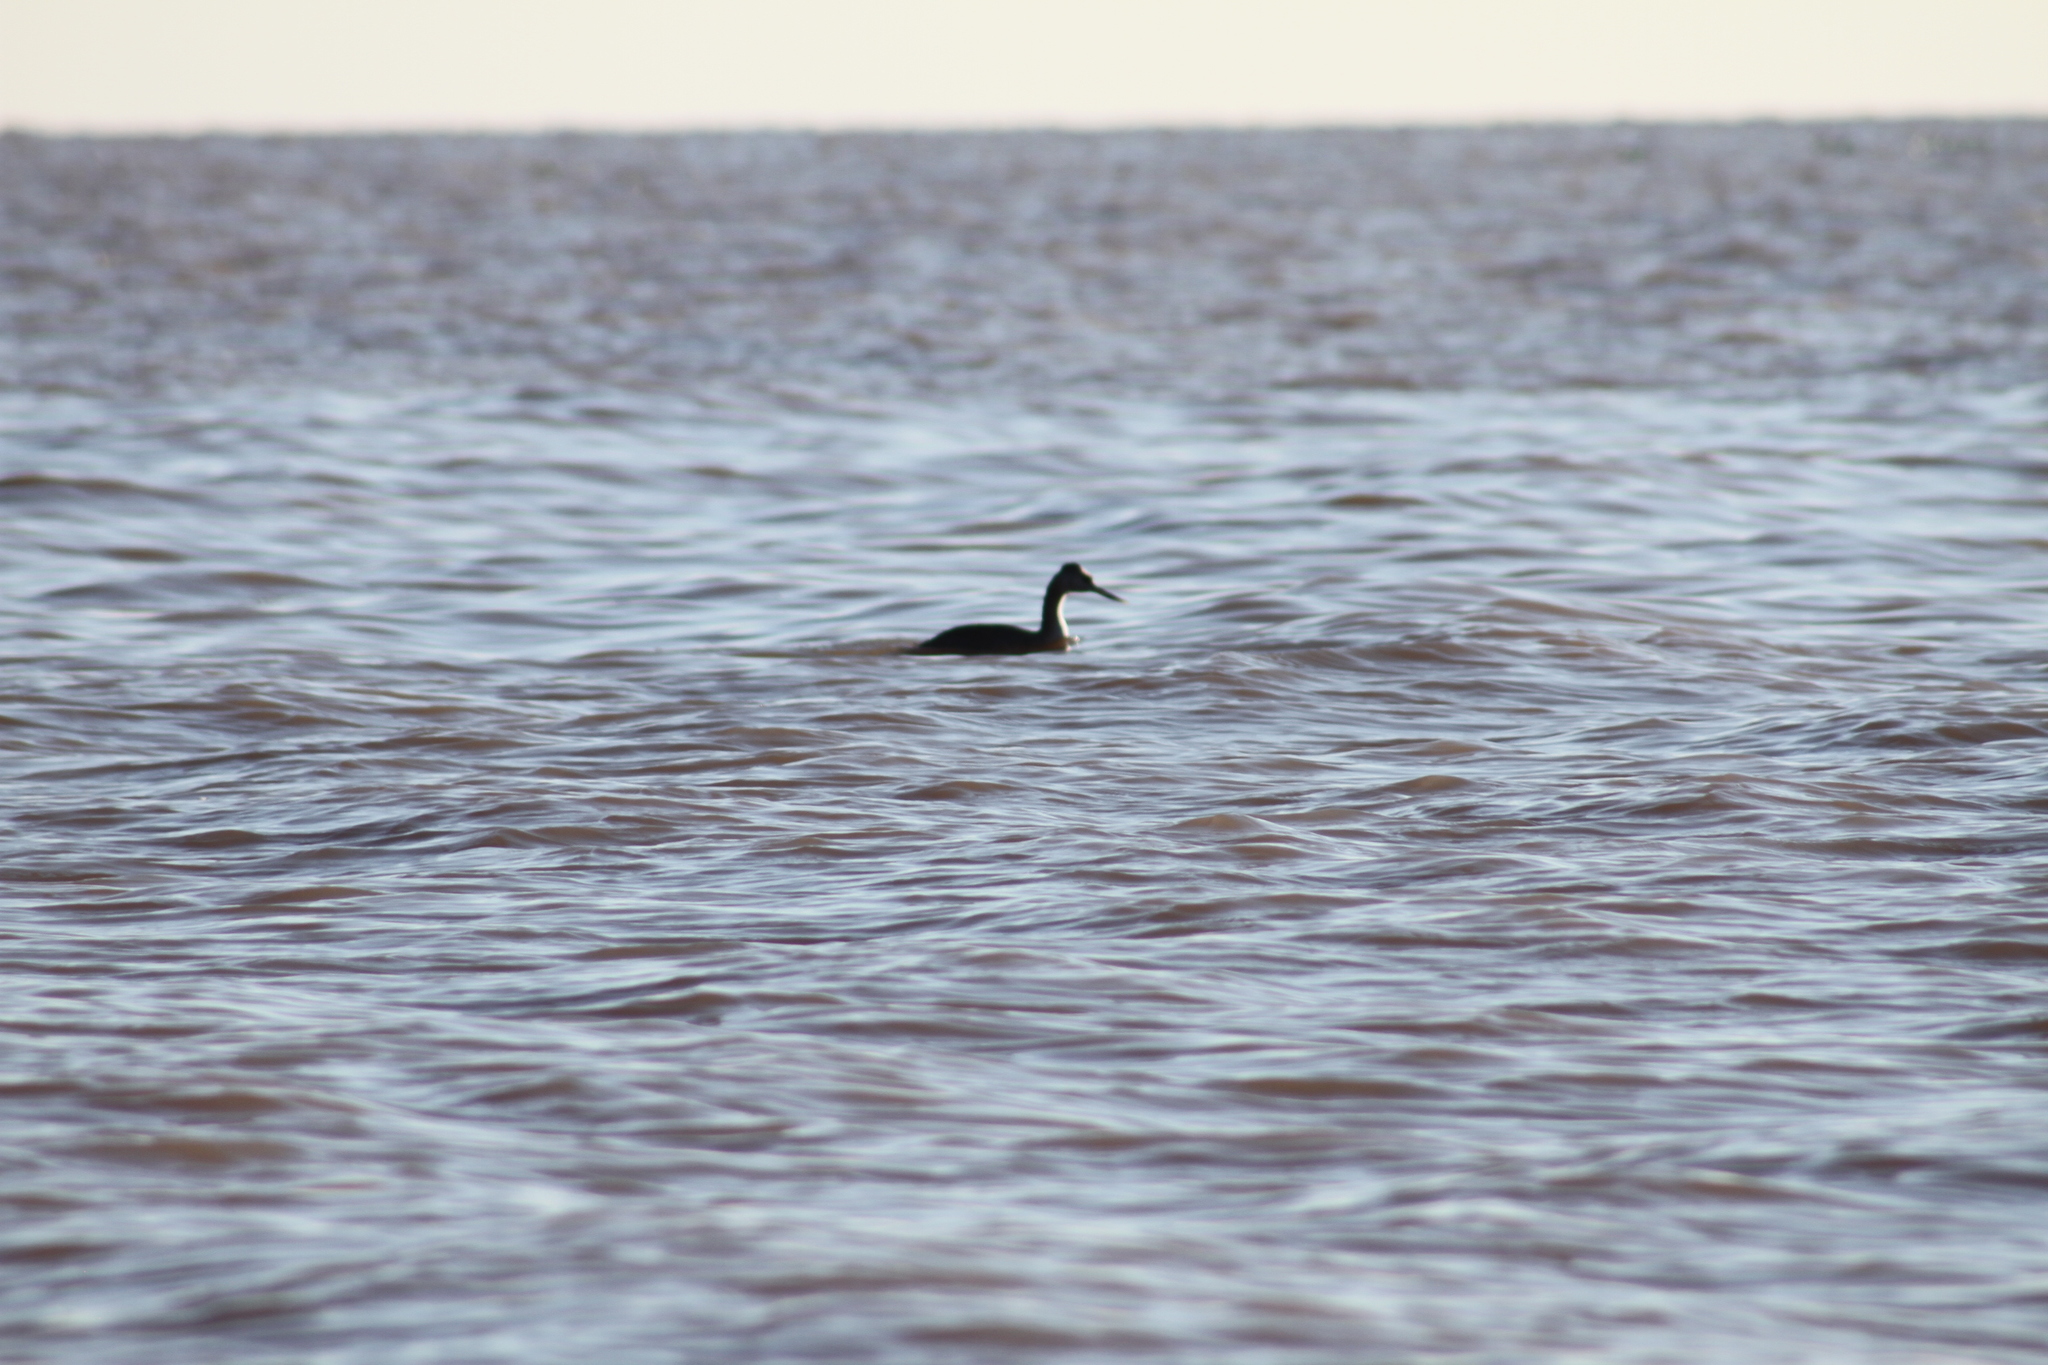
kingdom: Animalia
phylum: Chordata
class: Aves
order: Podicipediformes
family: Podicipedidae
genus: Podiceps
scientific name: Podiceps major
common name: Great grebe
